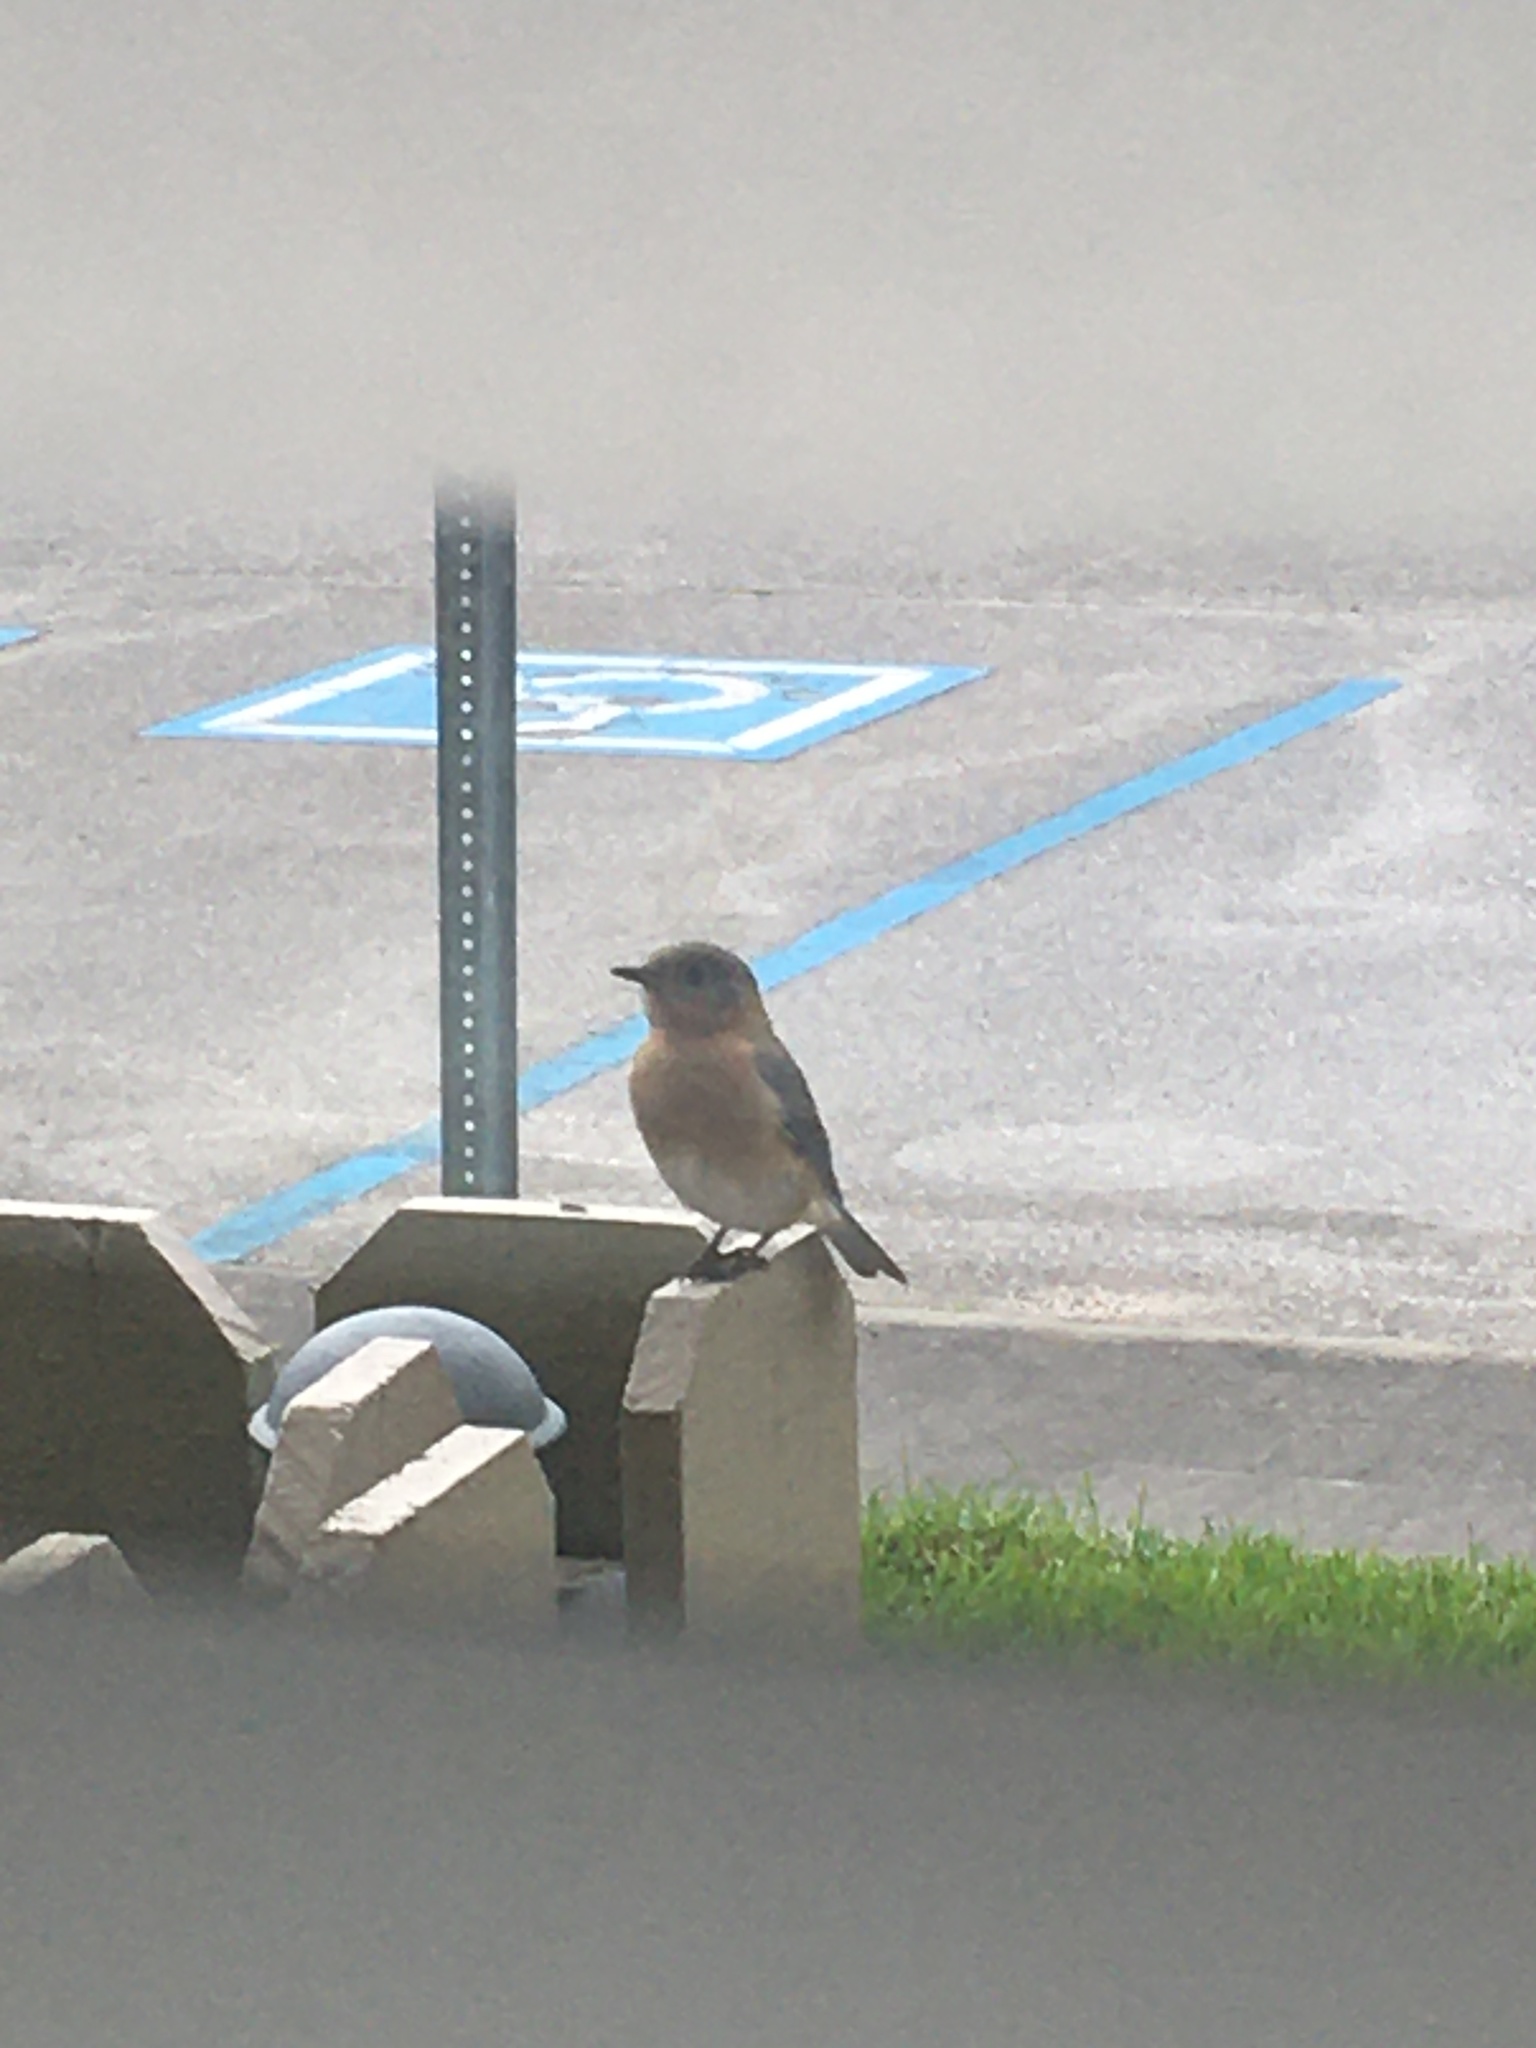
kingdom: Animalia
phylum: Chordata
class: Aves
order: Passeriformes
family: Turdidae
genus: Sialia
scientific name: Sialia sialis
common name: Eastern bluebird
